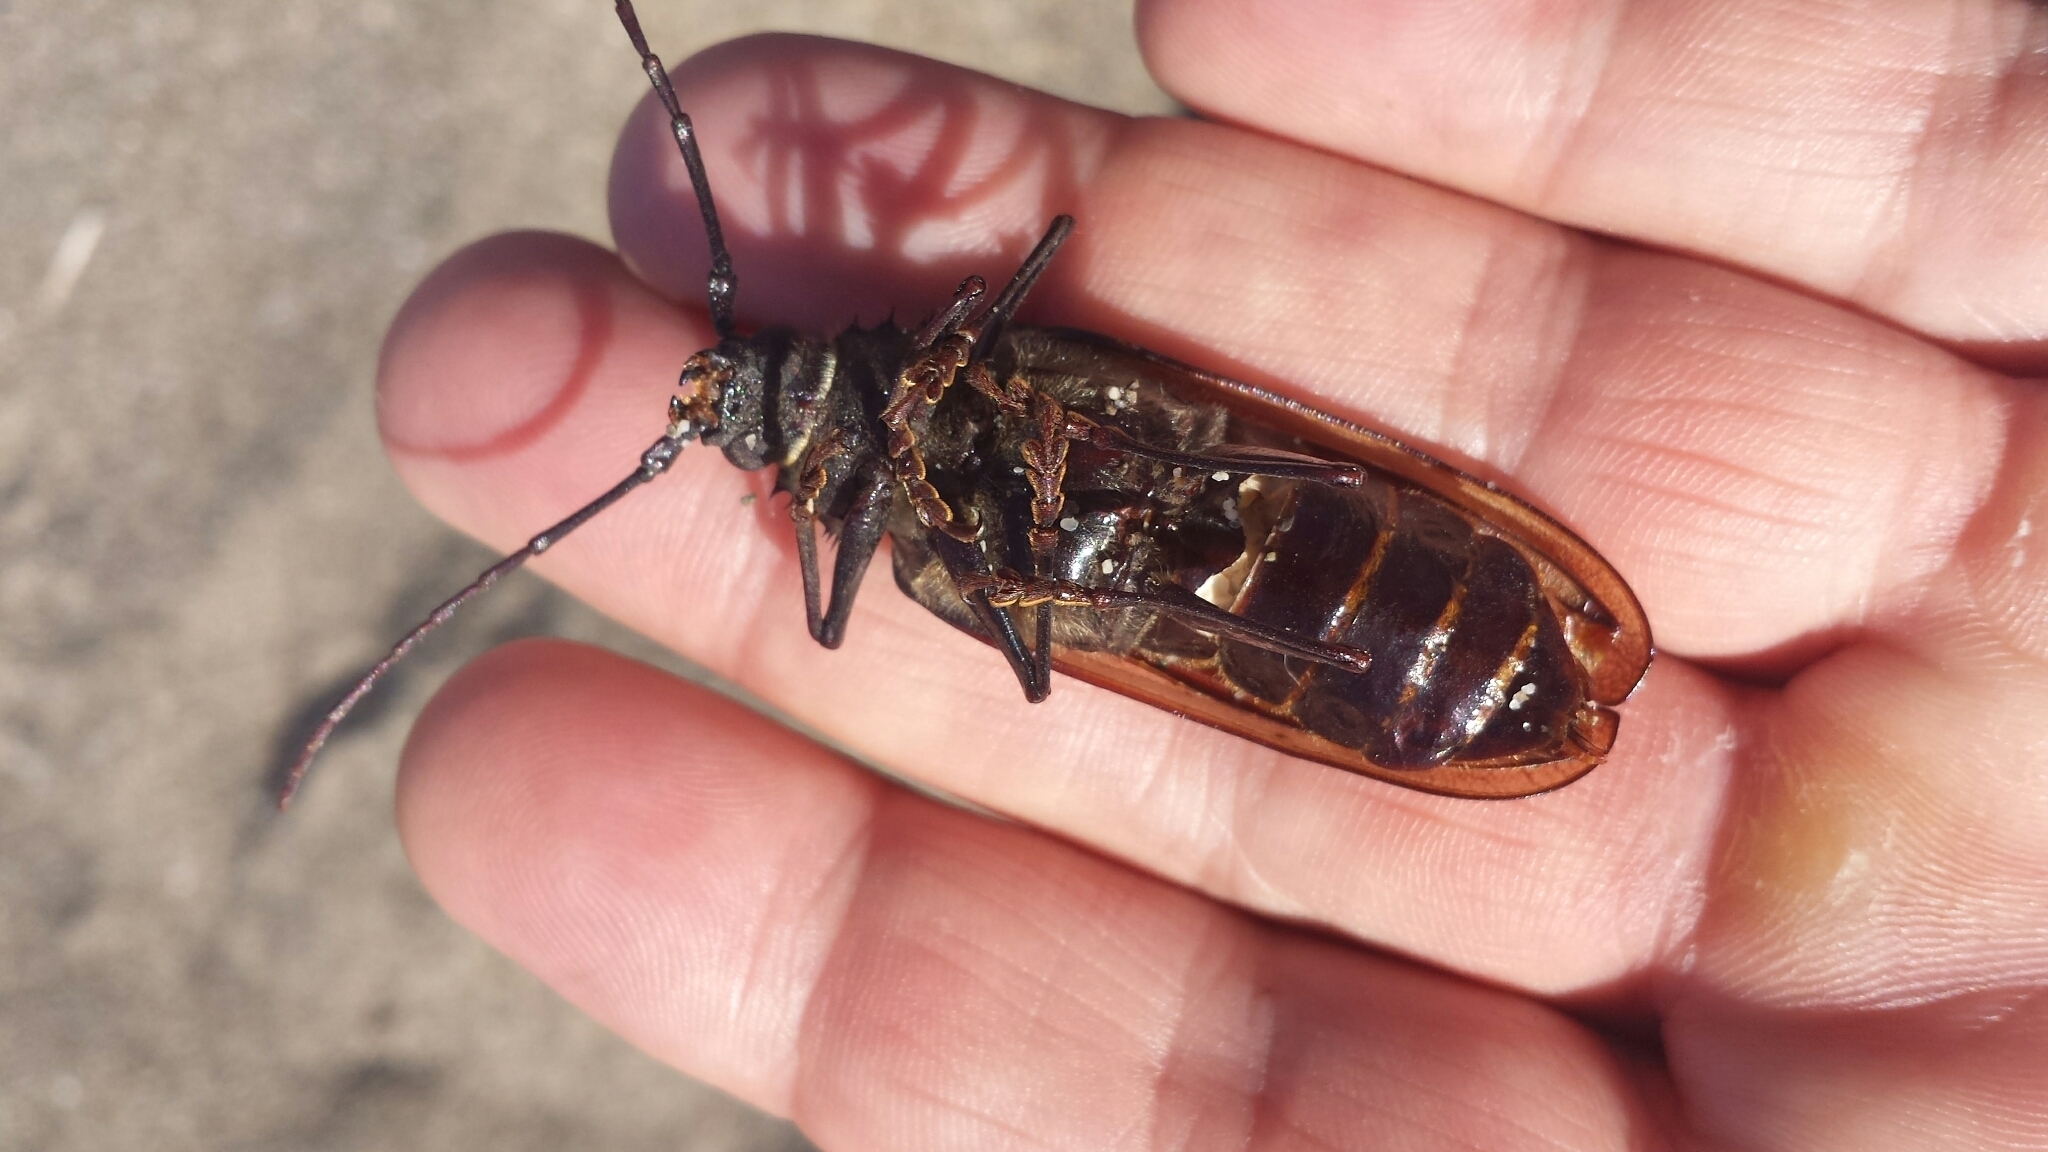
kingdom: Animalia
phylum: Arthropoda
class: Insecta
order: Coleoptera
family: Cerambycidae
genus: Trichocnemis
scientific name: Trichocnemis spiculatus
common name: Long-horned beetle
